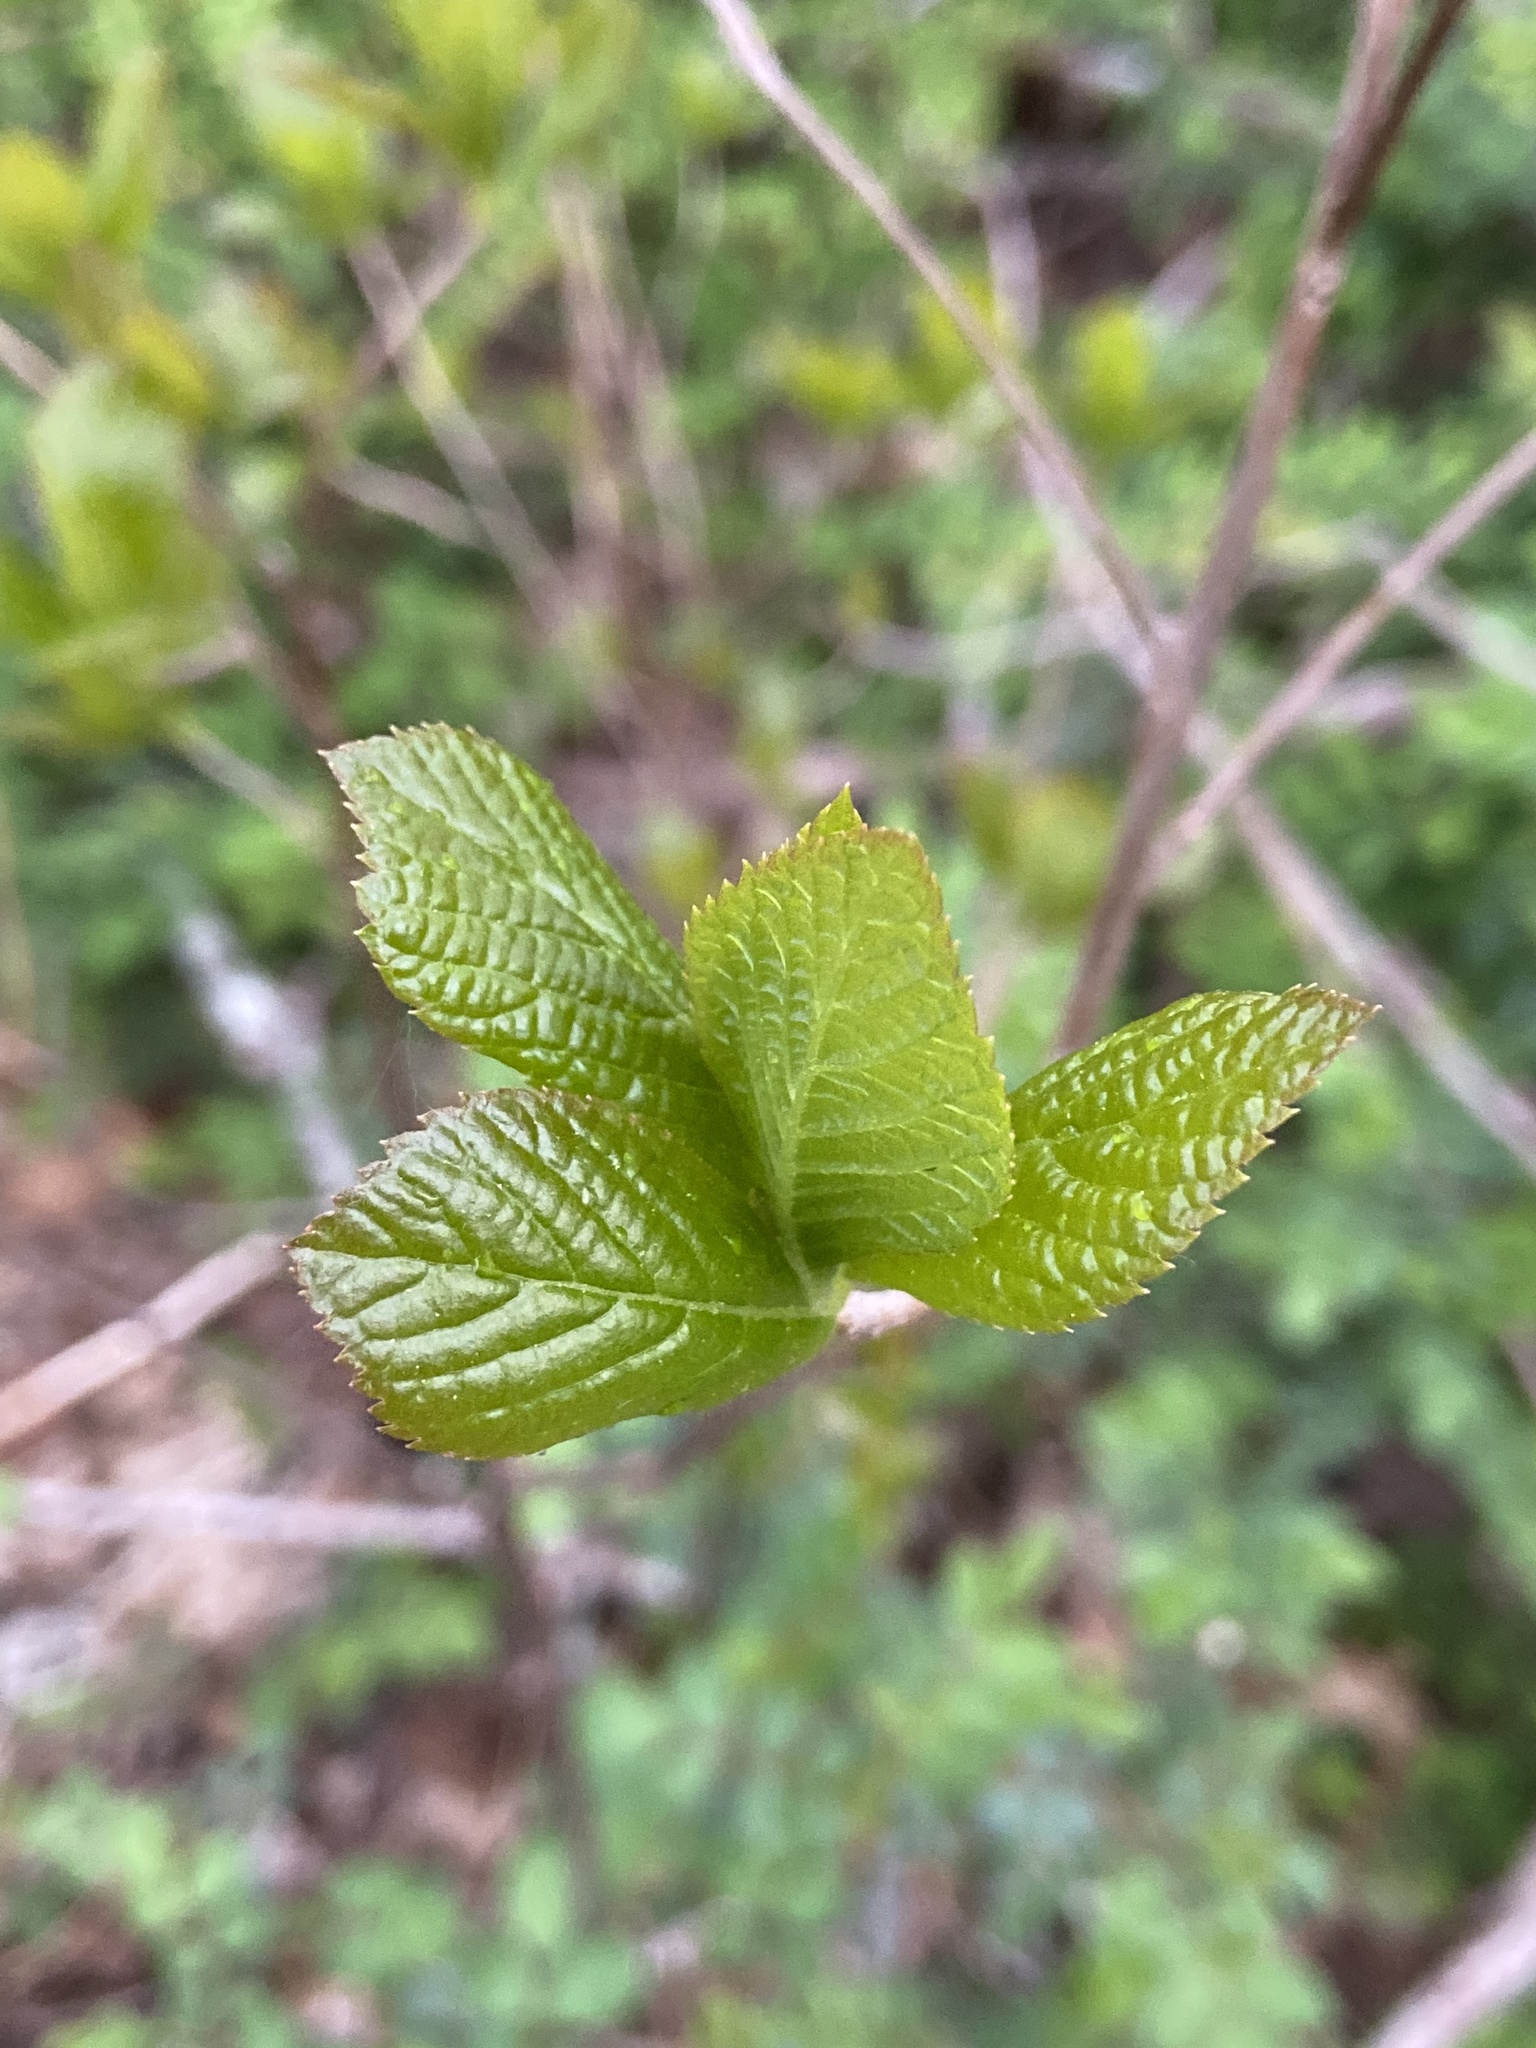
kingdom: Plantae
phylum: Tracheophyta
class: Magnoliopsida
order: Ericales
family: Clethraceae
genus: Clethra
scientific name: Clethra alnifolia
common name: Sweet pepperbush
